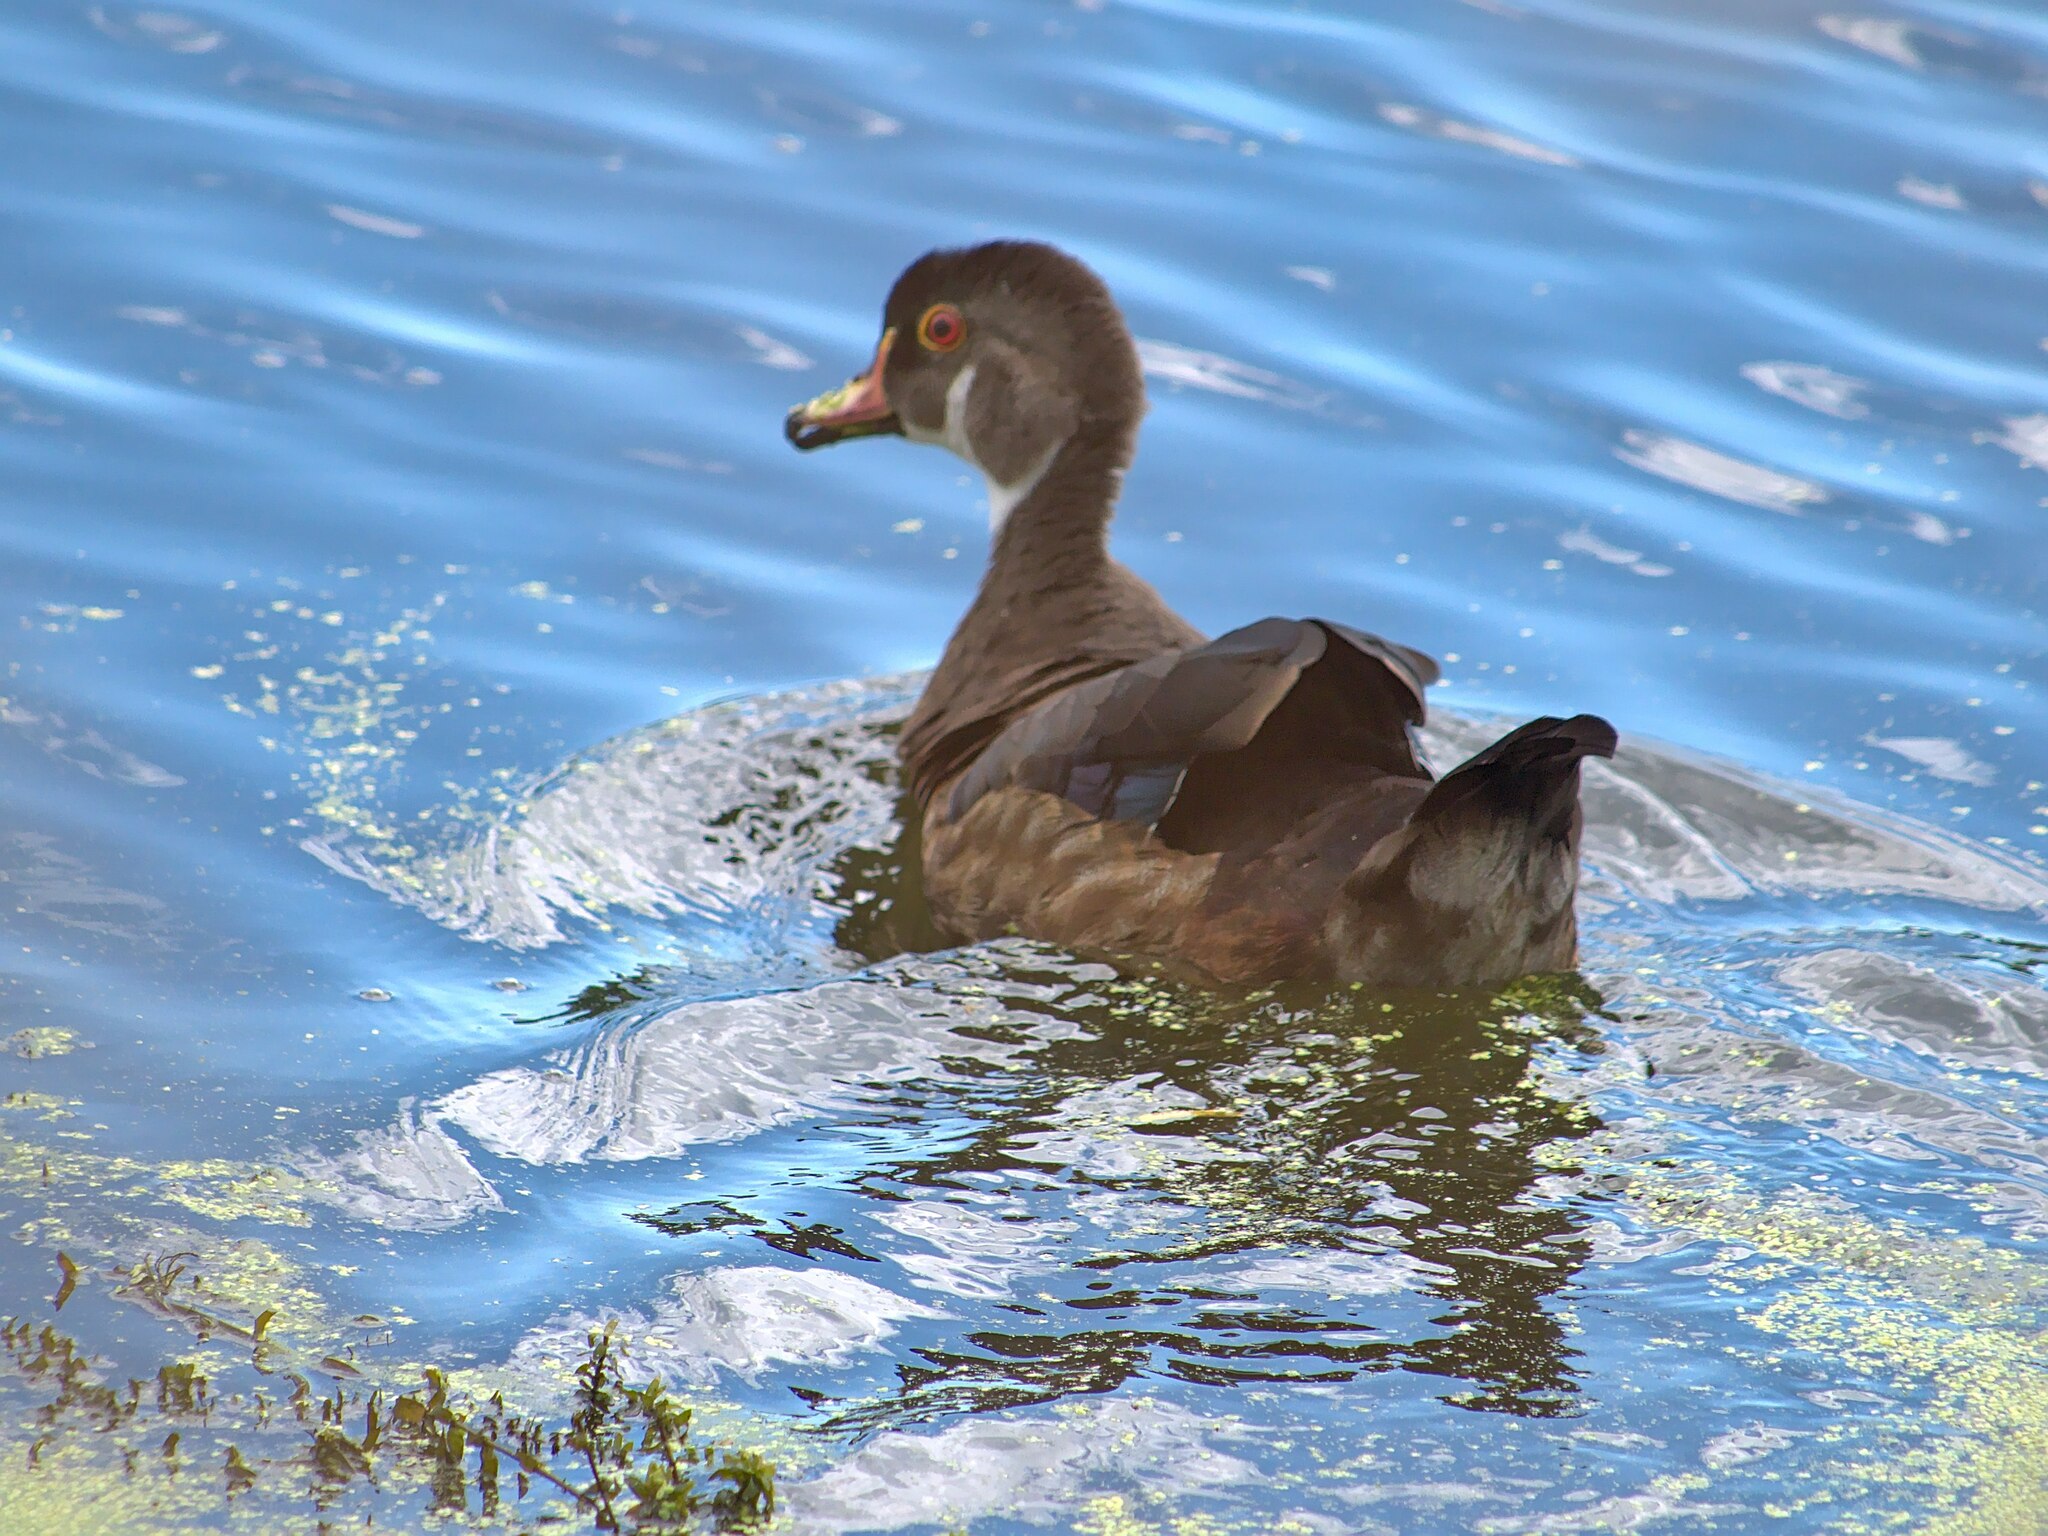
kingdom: Animalia
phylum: Chordata
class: Aves
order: Anseriformes
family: Anatidae
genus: Aix
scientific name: Aix sponsa
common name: Wood duck
